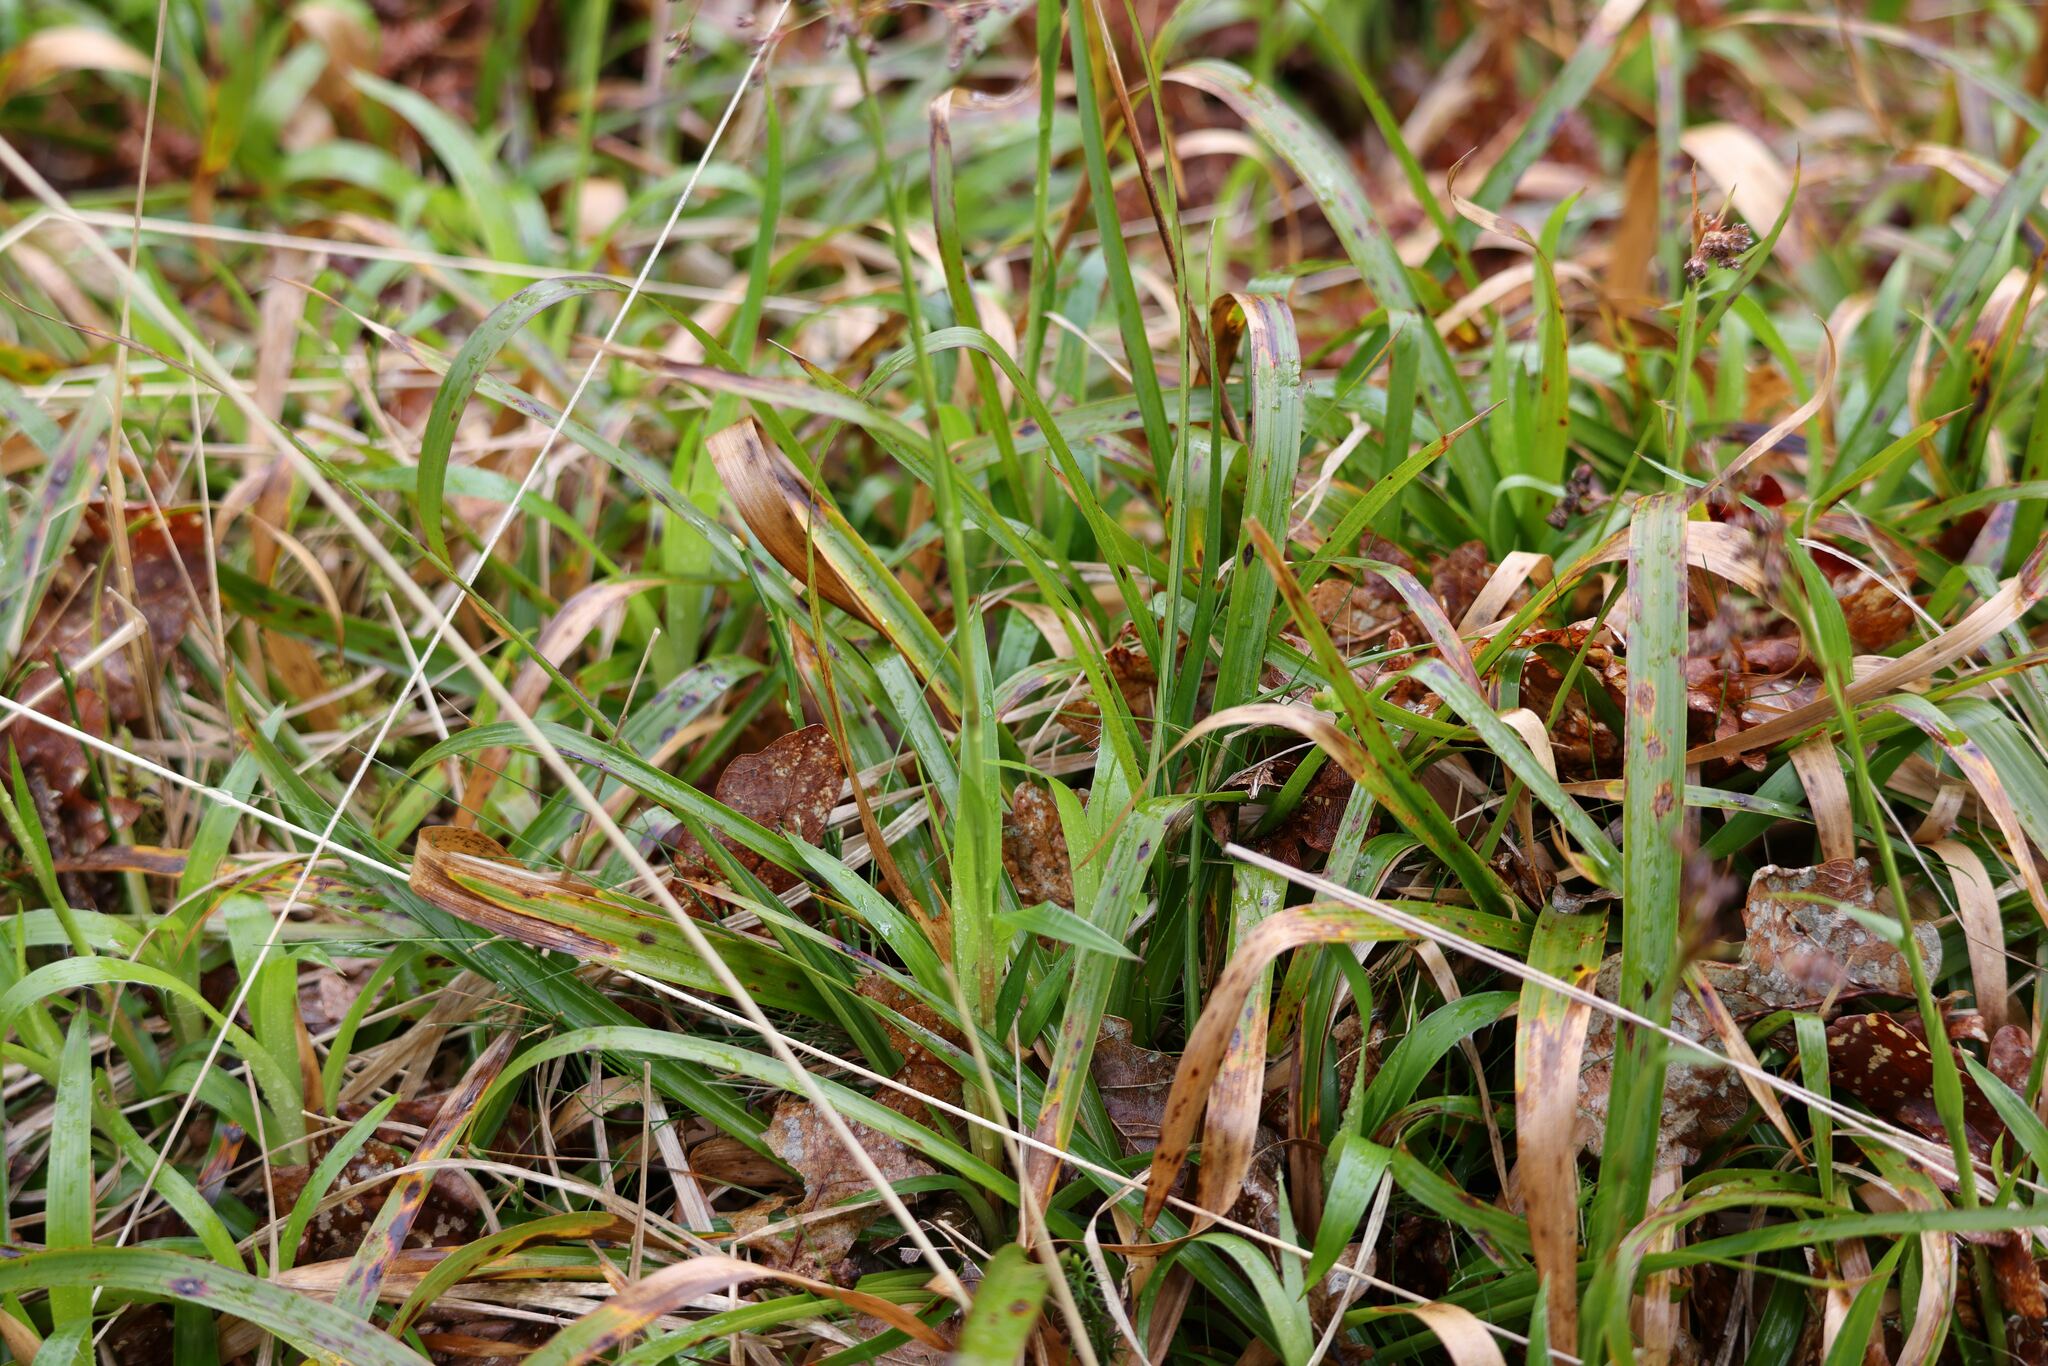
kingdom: Plantae
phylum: Tracheophyta
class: Liliopsida
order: Poales
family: Juncaceae
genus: Luzula
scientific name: Luzula sylvatica
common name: Great wood-rush
